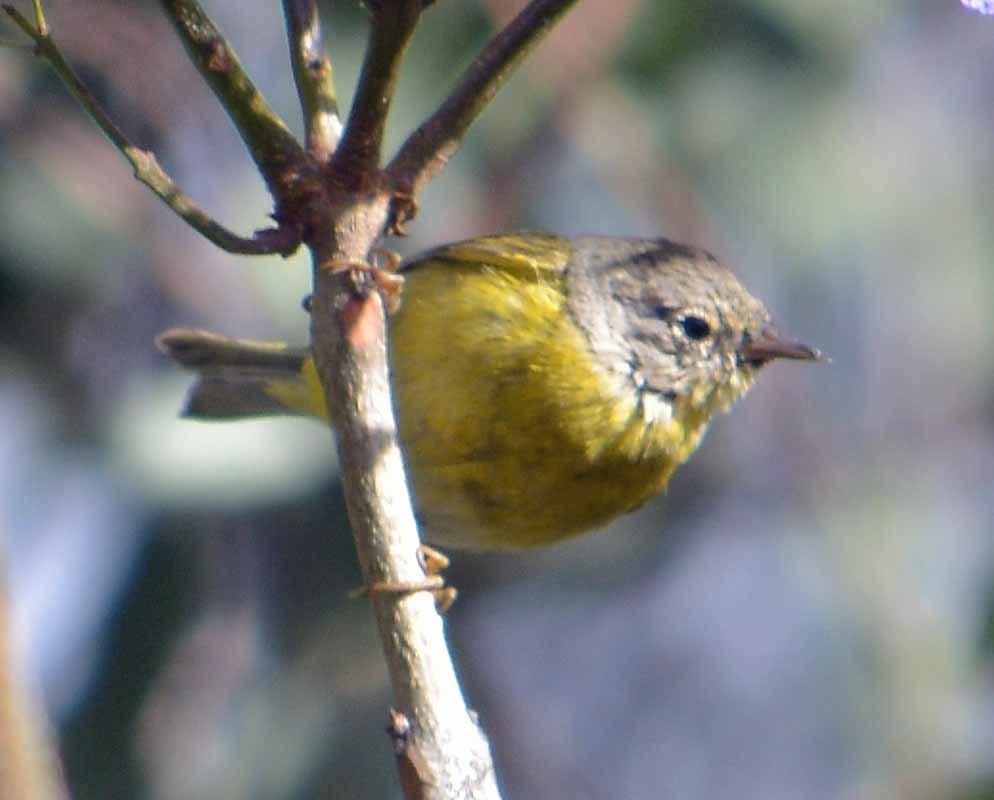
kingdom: Animalia
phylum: Chordata
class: Aves
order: Passeriformes
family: Parulidae
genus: Leiothlypis
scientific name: Leiothlypis ruficapilla
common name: Nashville warbler
